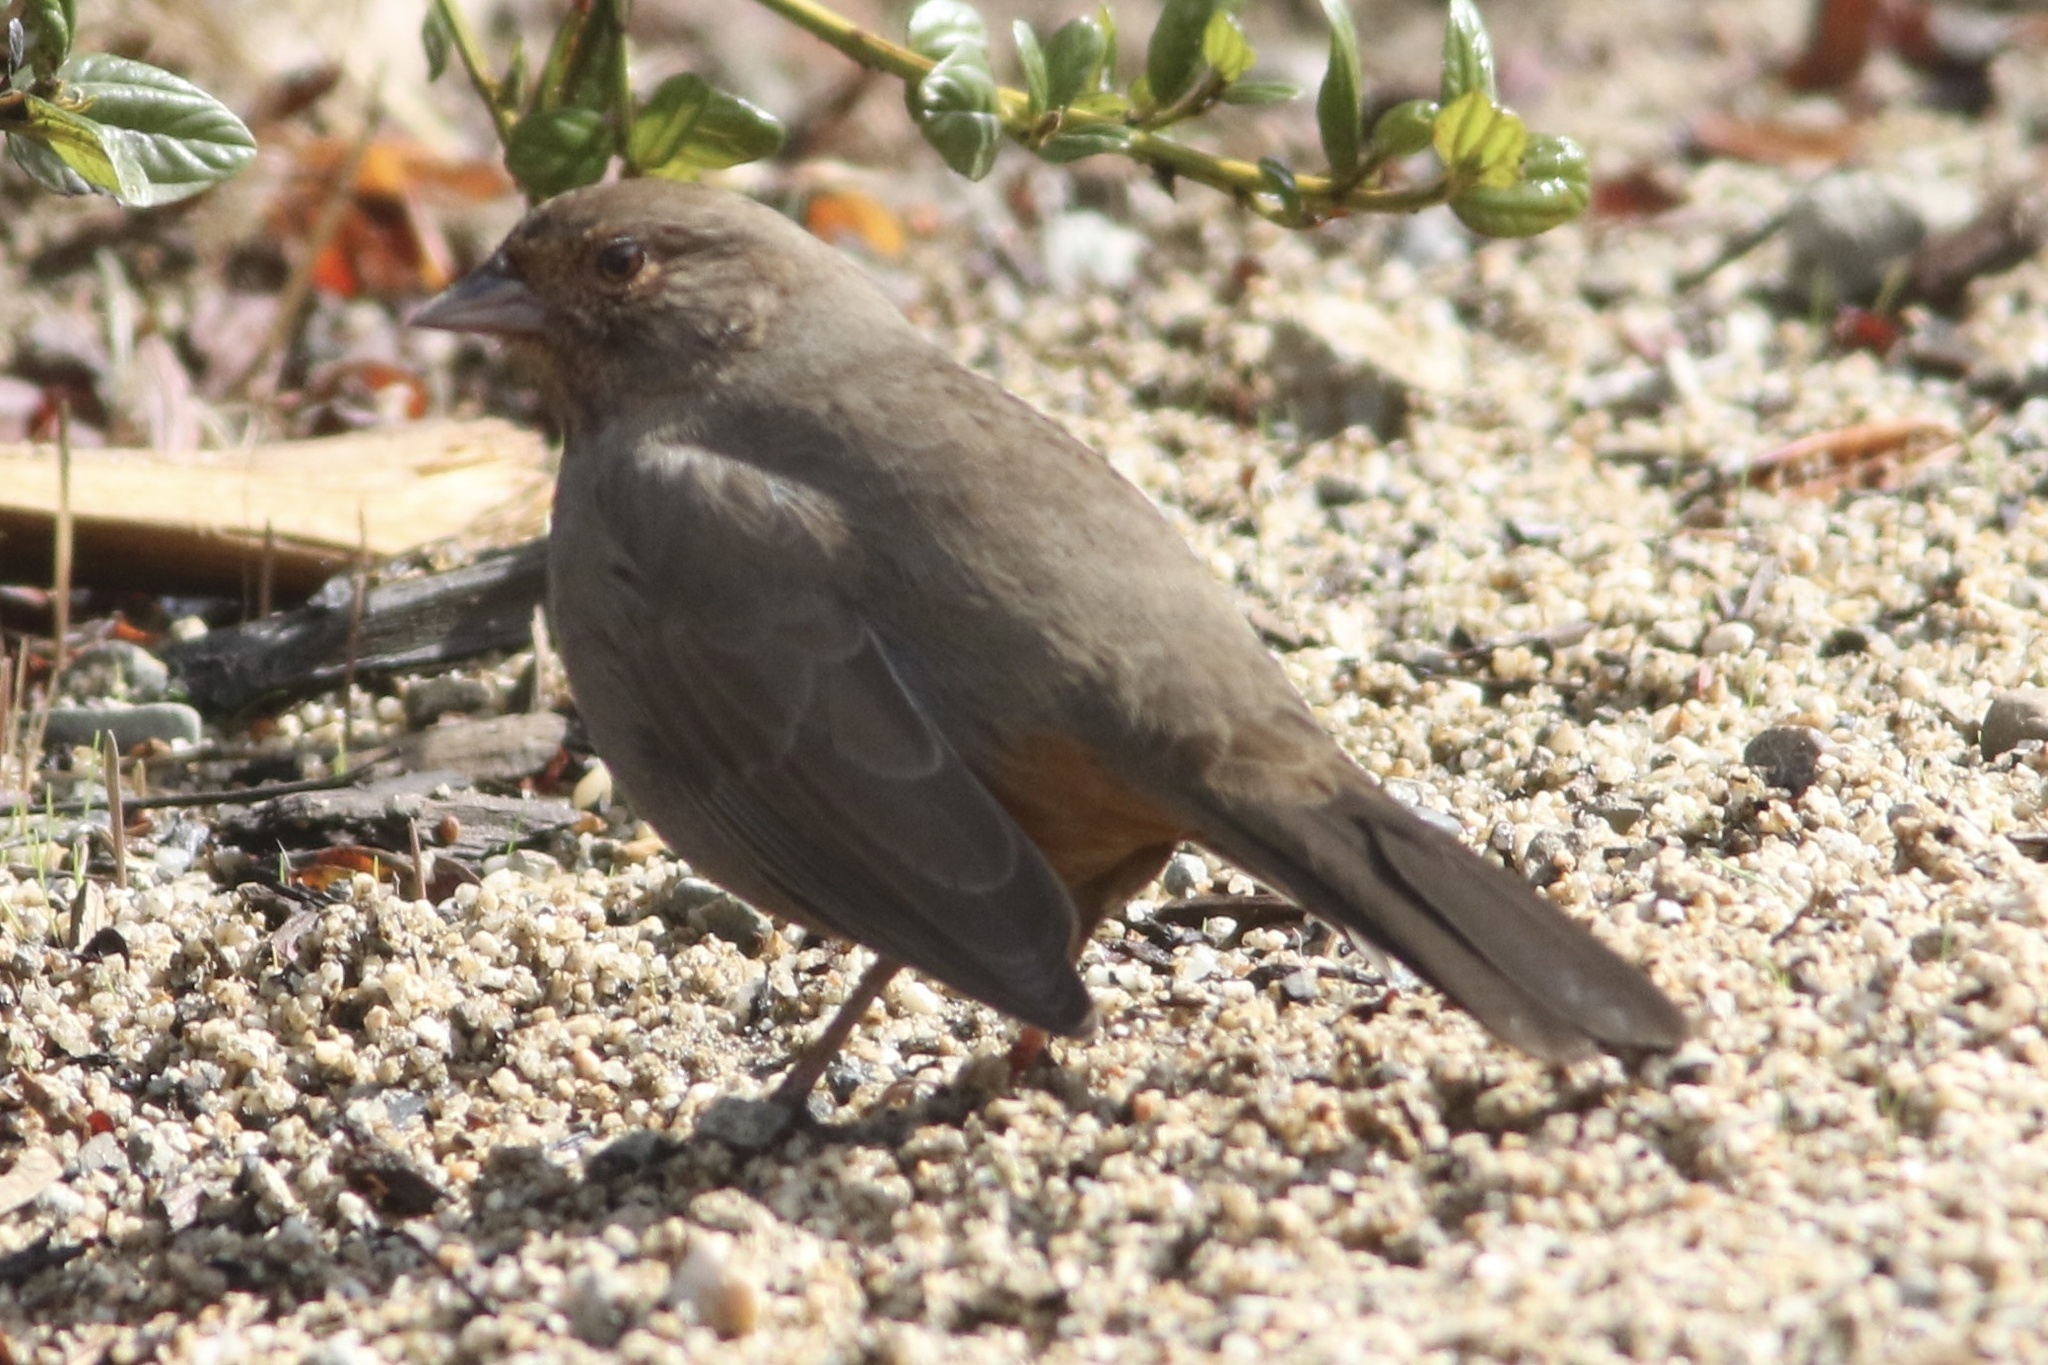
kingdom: Animalia
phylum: Chordata
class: Aves
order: Passeriformes
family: Passerellidae
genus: Melozone
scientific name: Melozone crissalis
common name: California towhee
